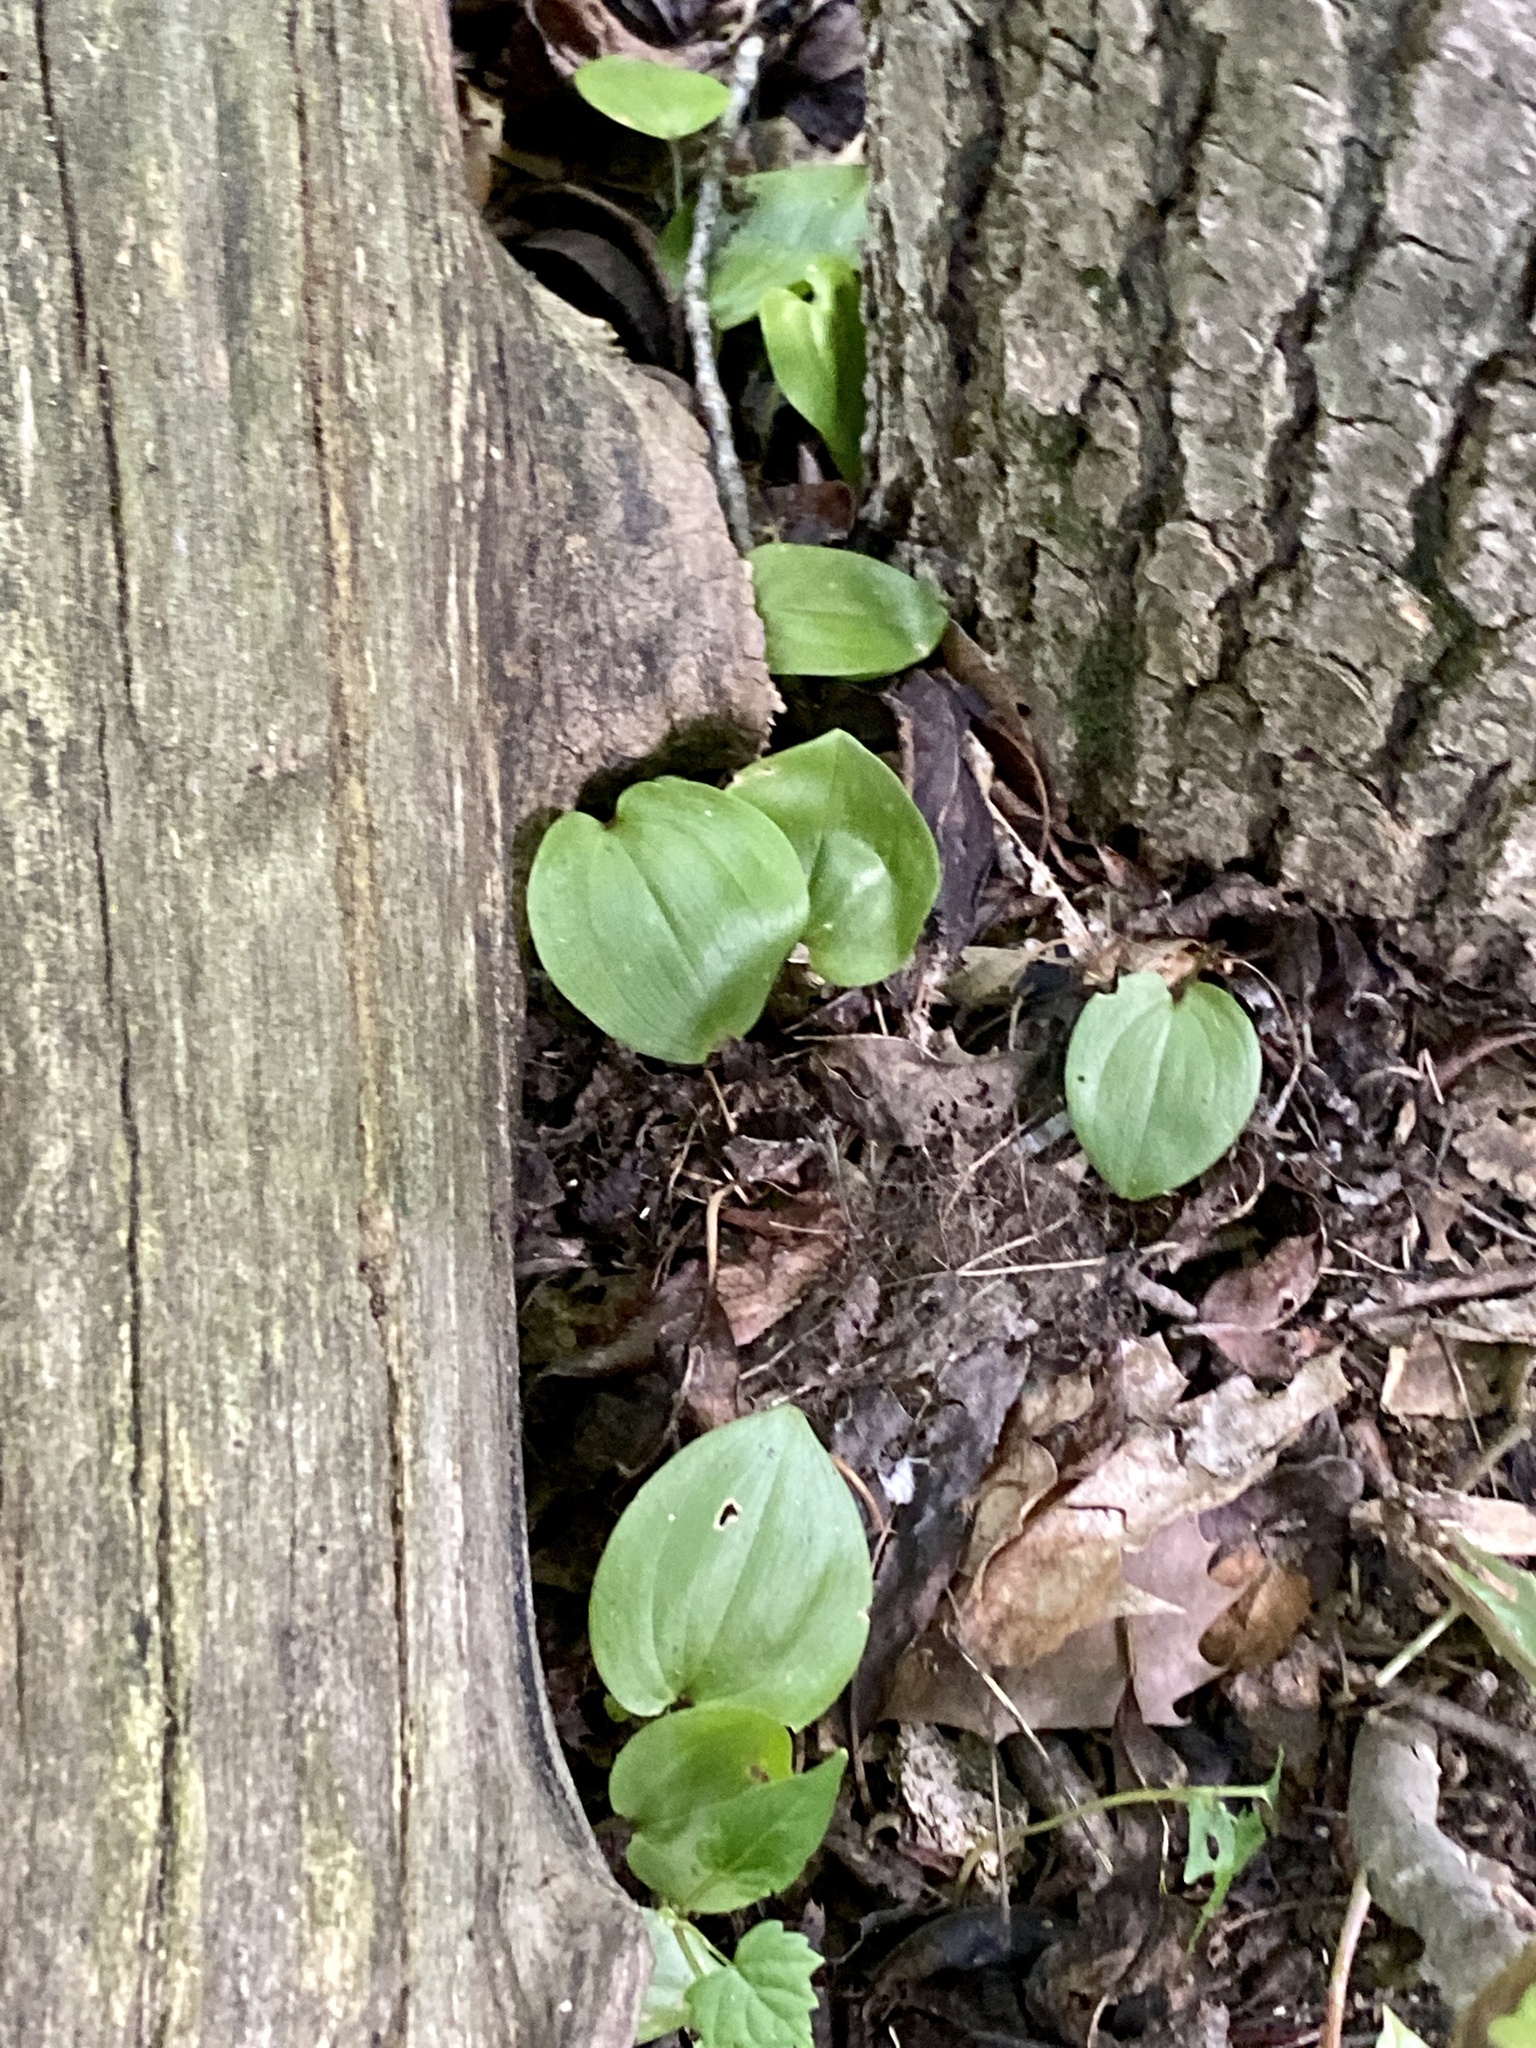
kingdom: Plantae
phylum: Tracheophyta
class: Liliopsida
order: Asparagales
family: Asparagaceae
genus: Maianthemum
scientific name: Maianthemum canadense
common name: False lily-of-the-valley
